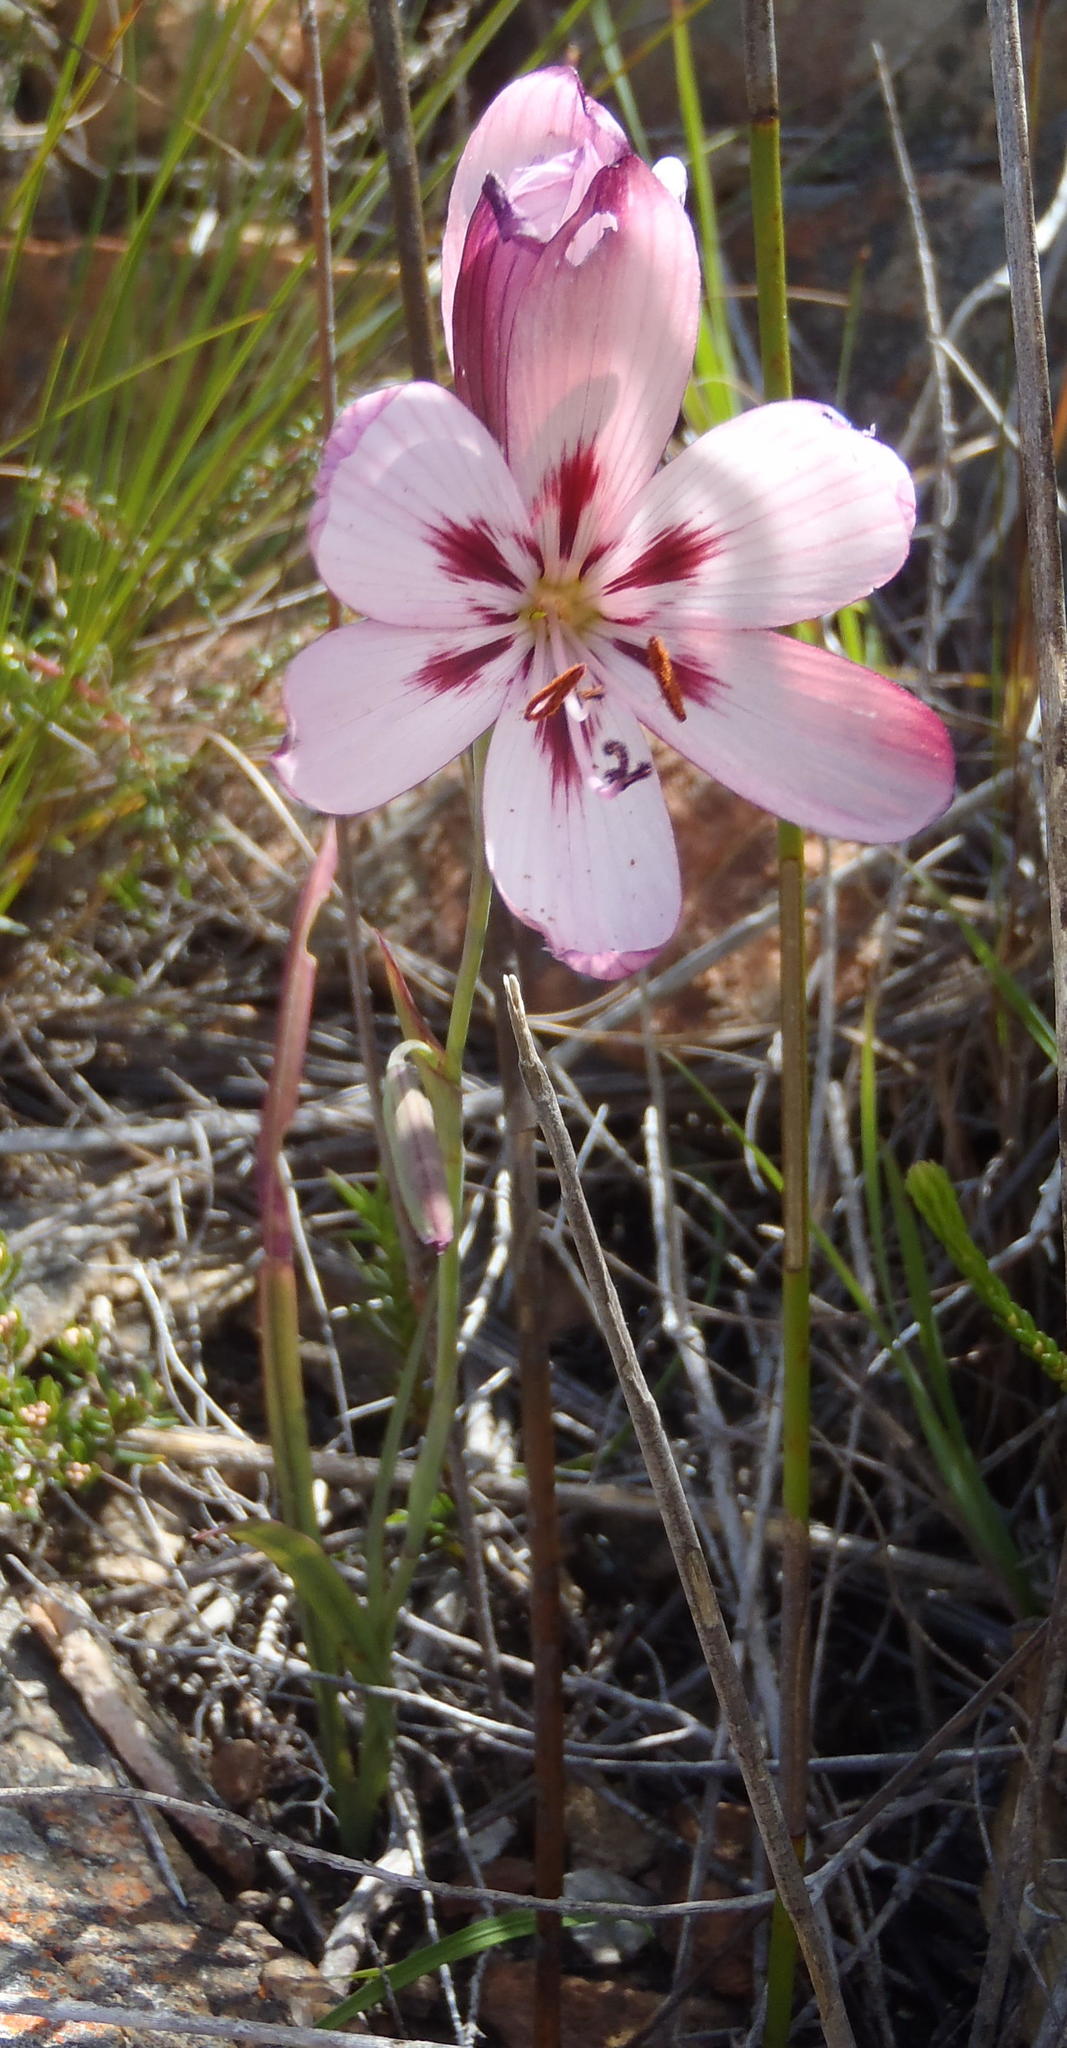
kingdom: Plantae
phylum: Tracheophyta
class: Liliopsida
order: Asparagales
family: Iridaceae
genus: Geissorhiza
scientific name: Geissorhiza roseoalba
